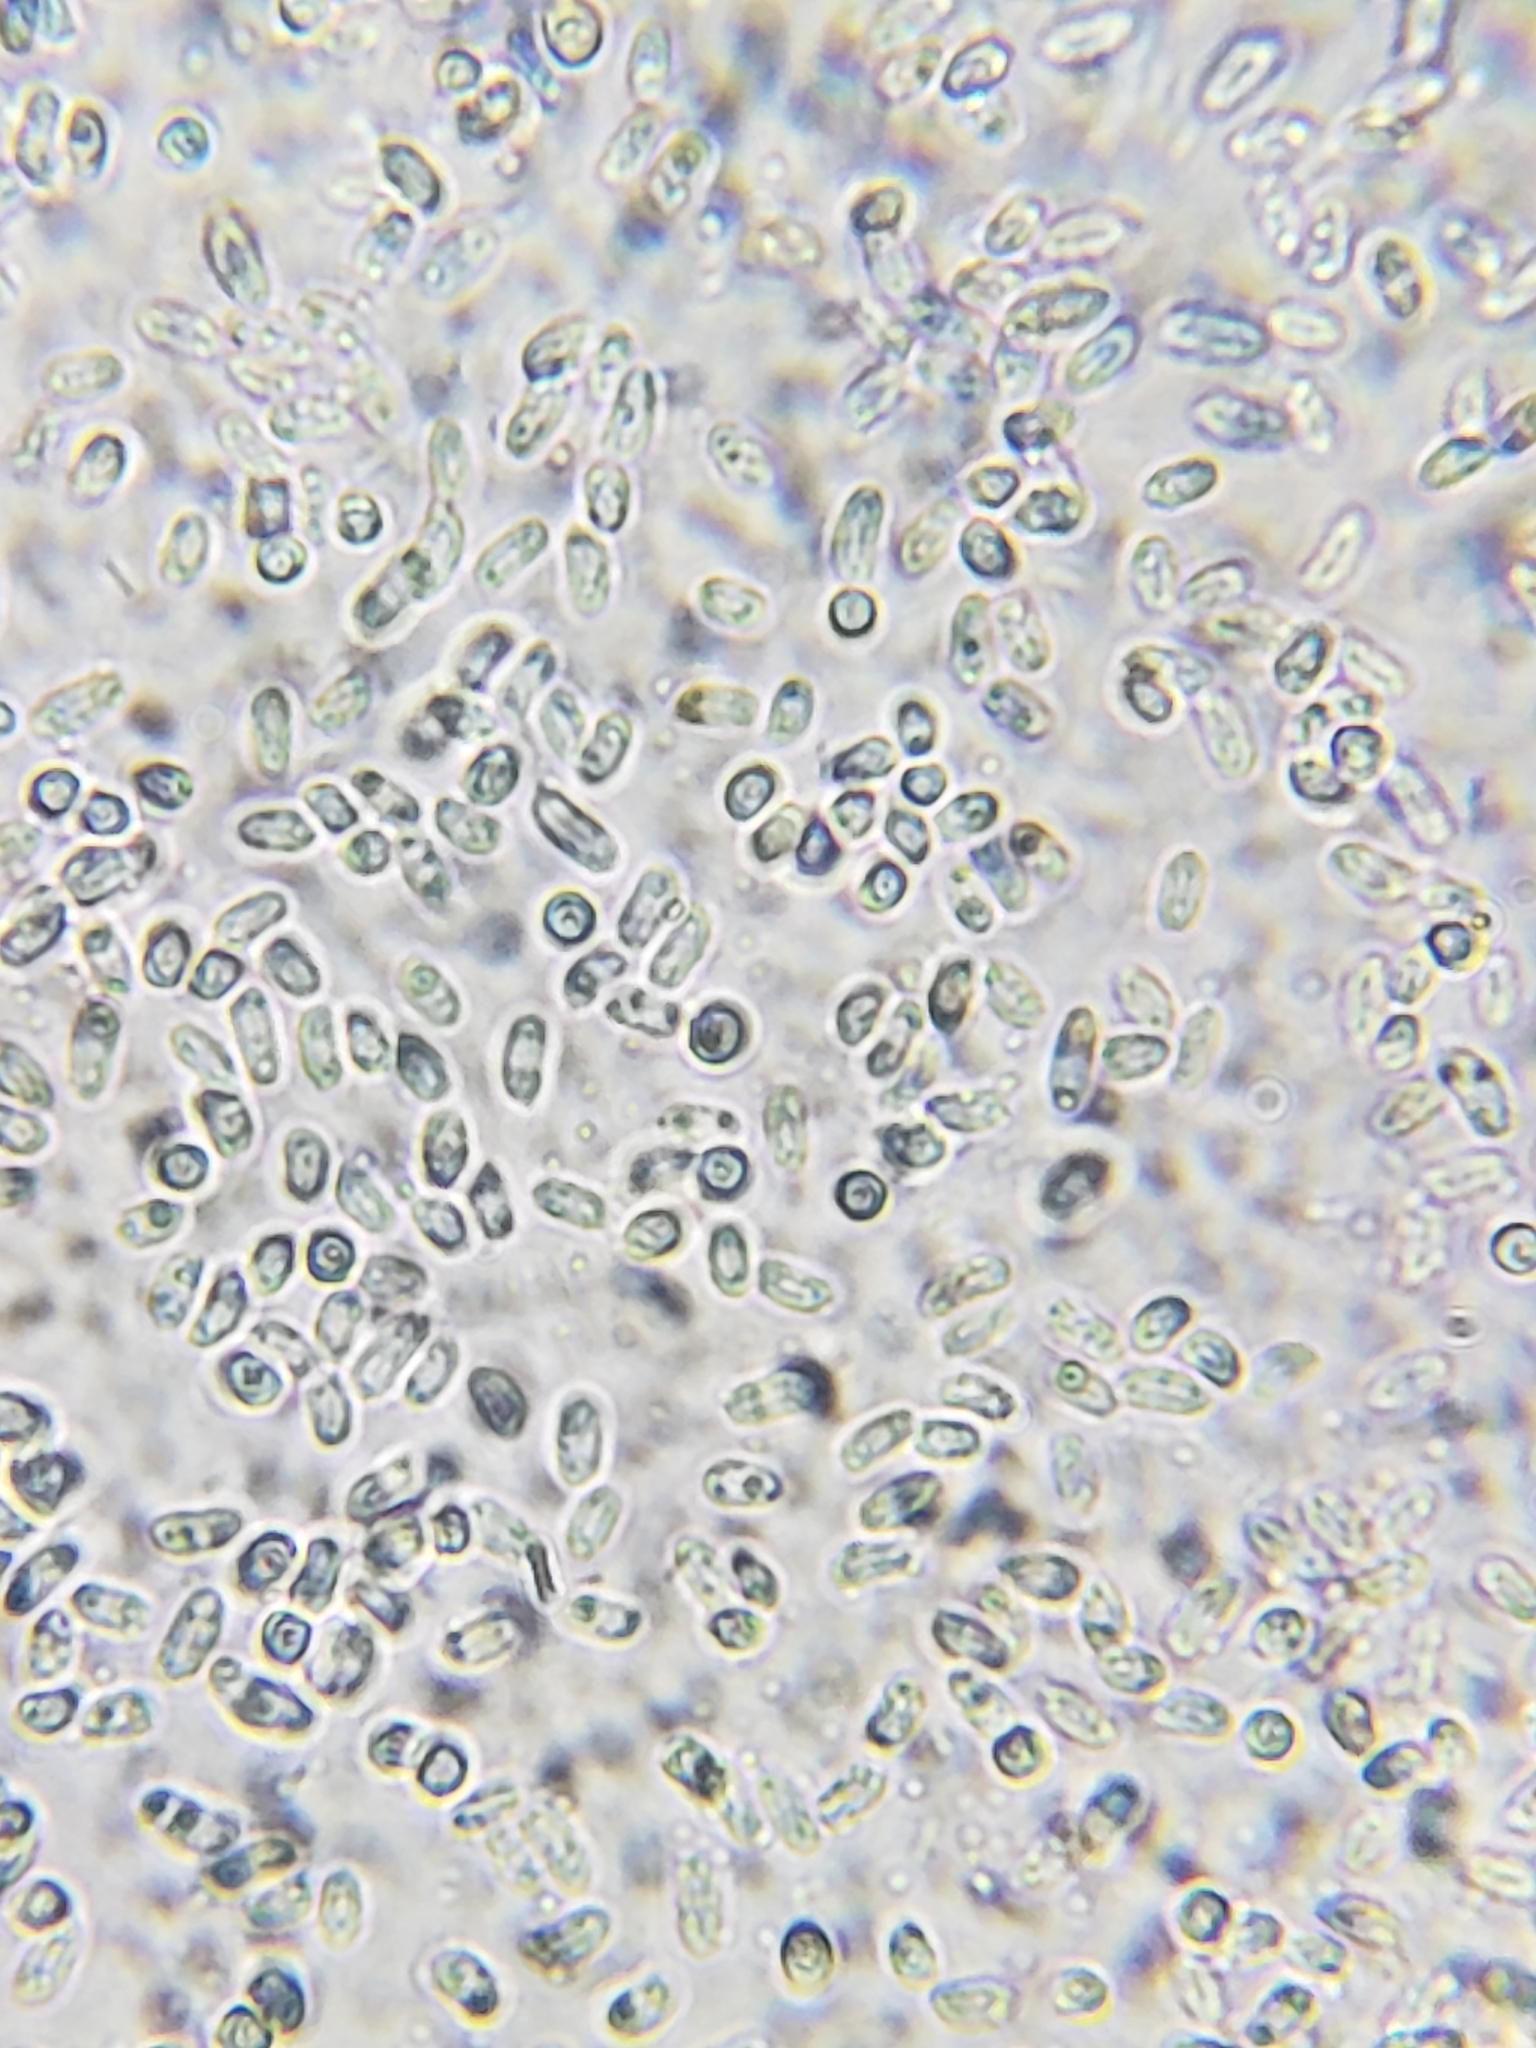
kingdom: Fungi
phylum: Basidiomycota
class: Agaricomycetes
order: Polyporales
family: Irpicaceae
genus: Byssomerulius
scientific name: Byssomerulius incarnatus
